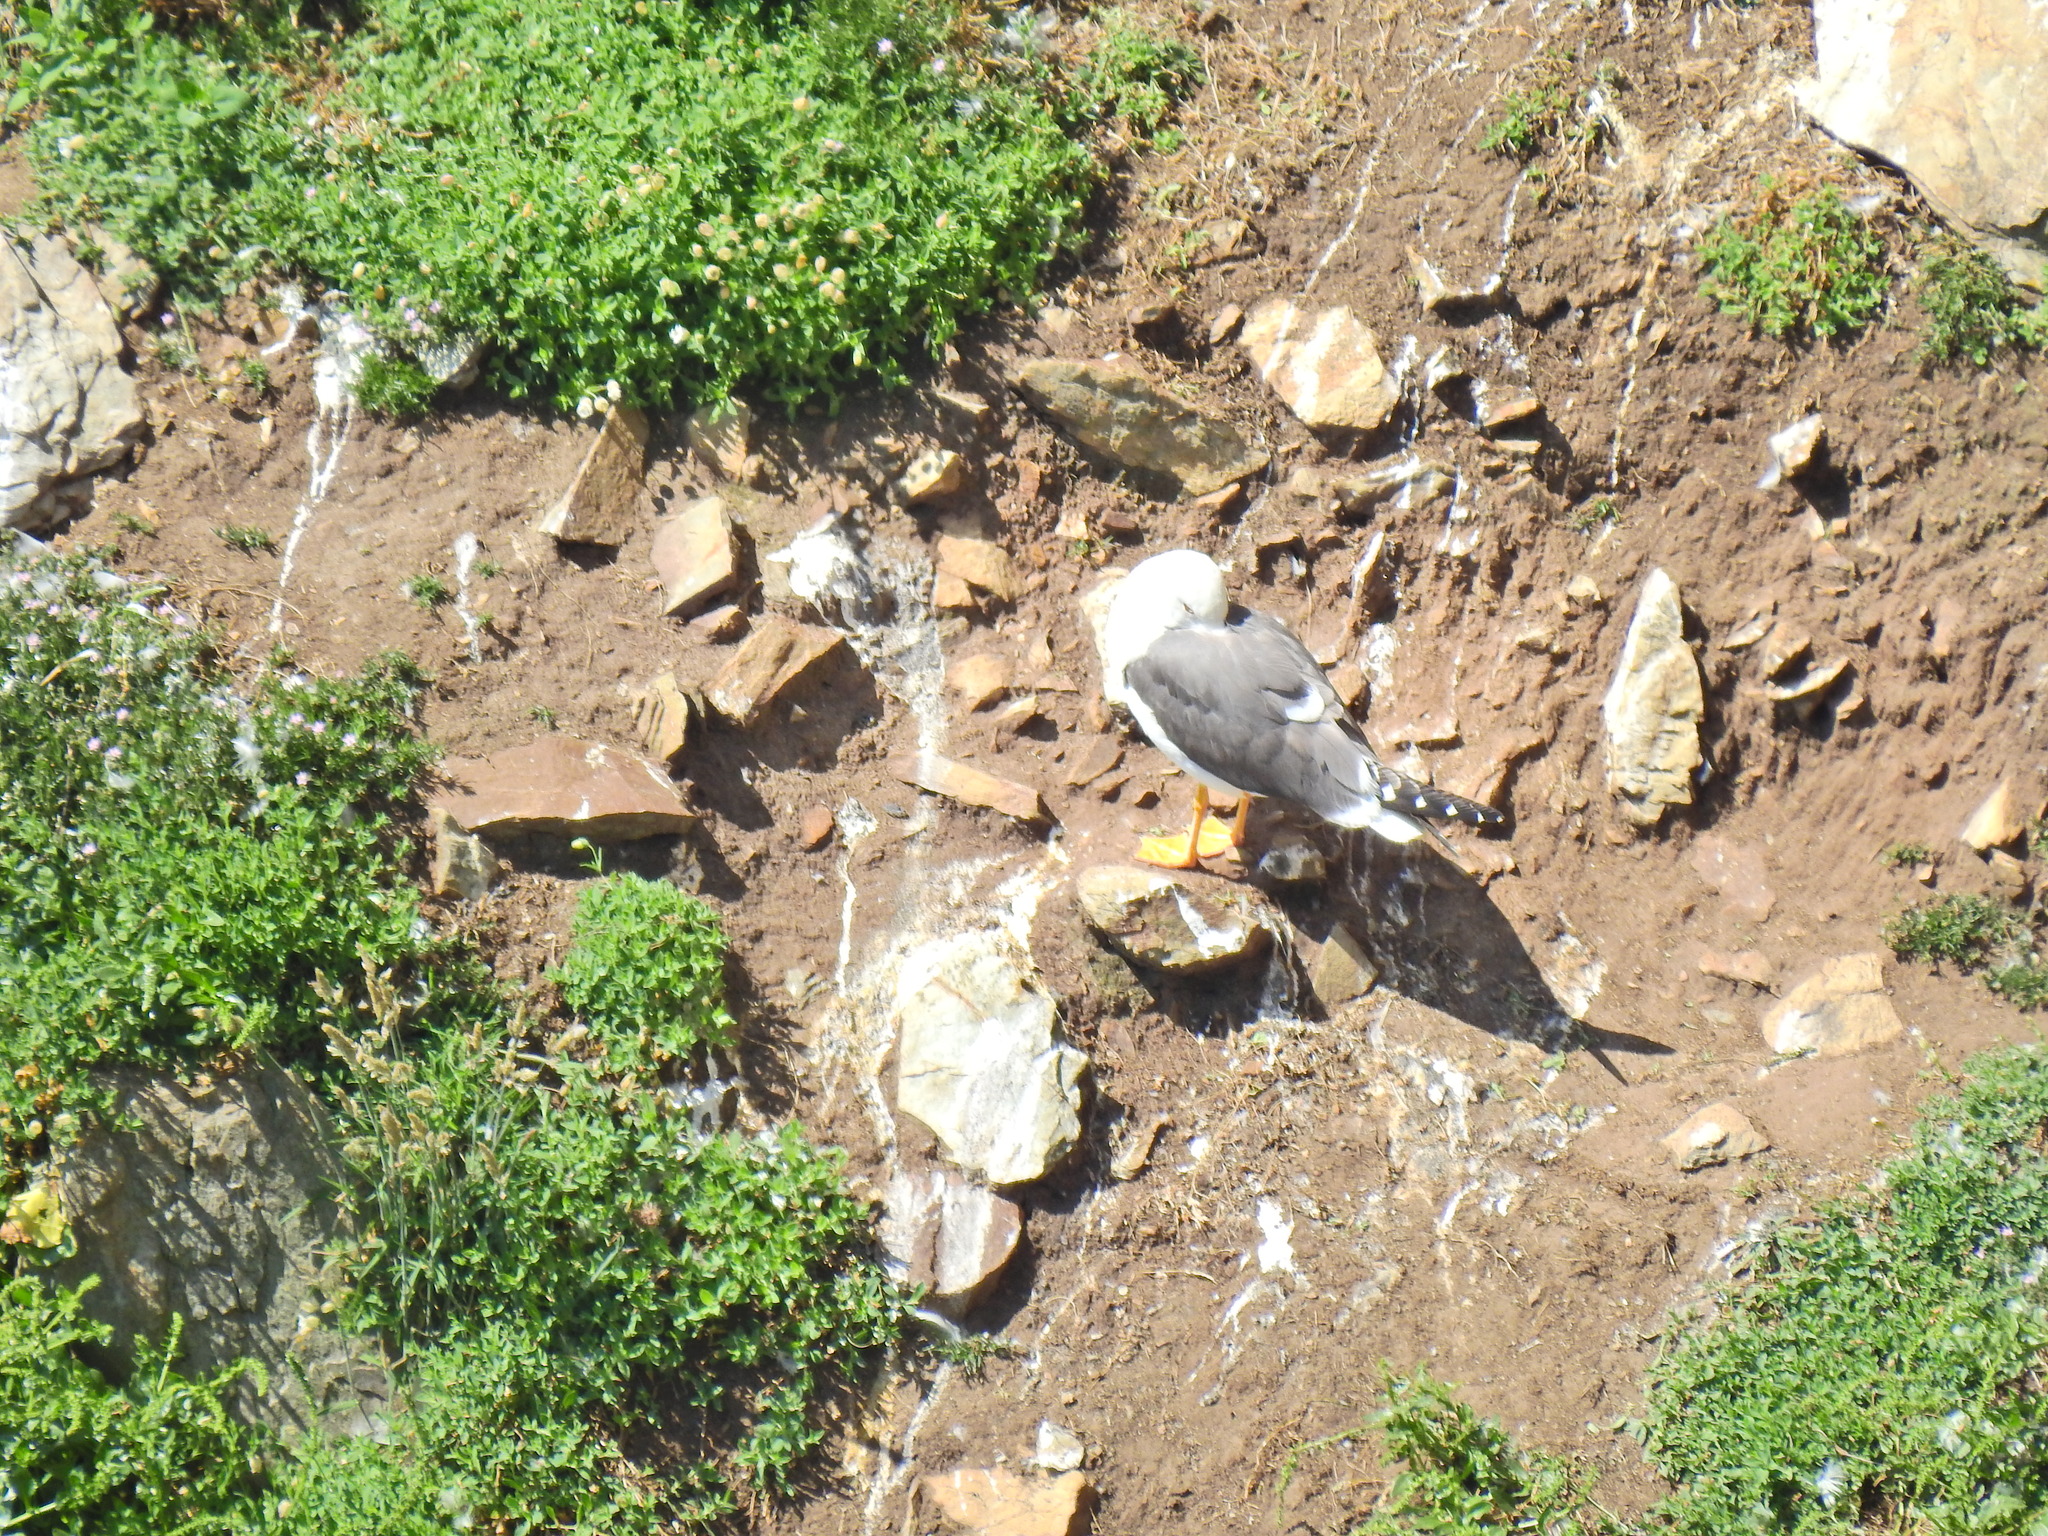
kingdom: Animalia
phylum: Chordata
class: Aves
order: Charadriiformes
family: Laridae
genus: Larus
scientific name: Larus fuscus
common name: Lesser black-backed gull
